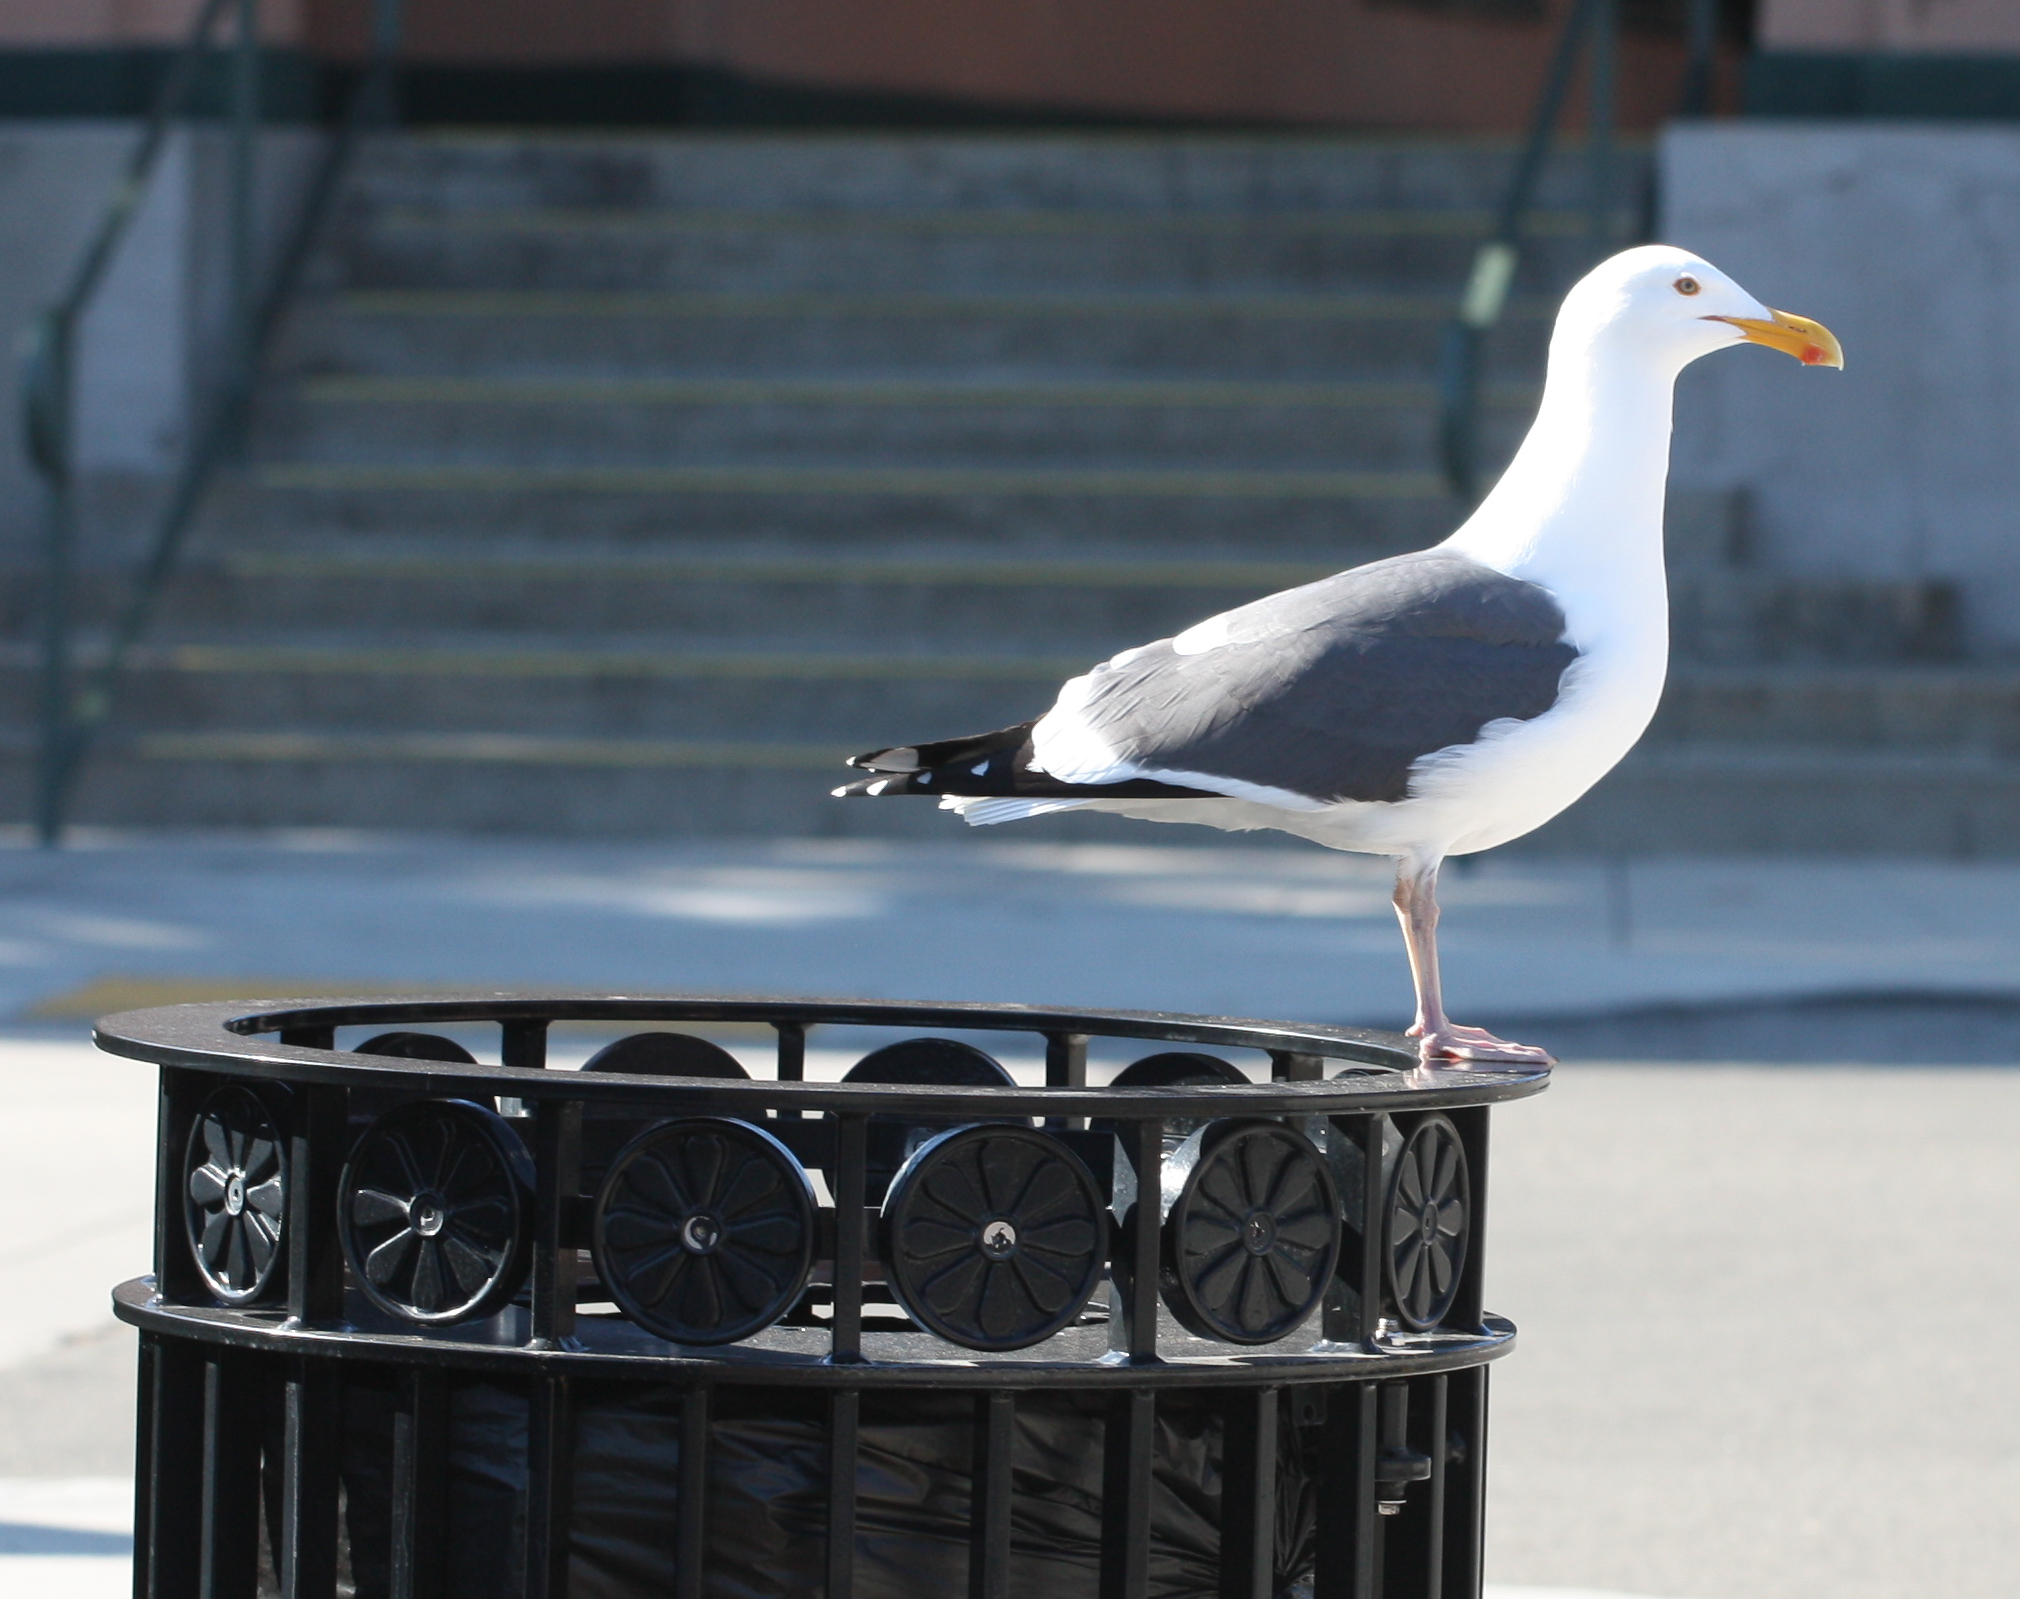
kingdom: Animalia
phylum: Chordata
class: Aves
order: Charadriiformes
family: Laridae
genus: Larus
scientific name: Larus occidentalis
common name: Western gull
